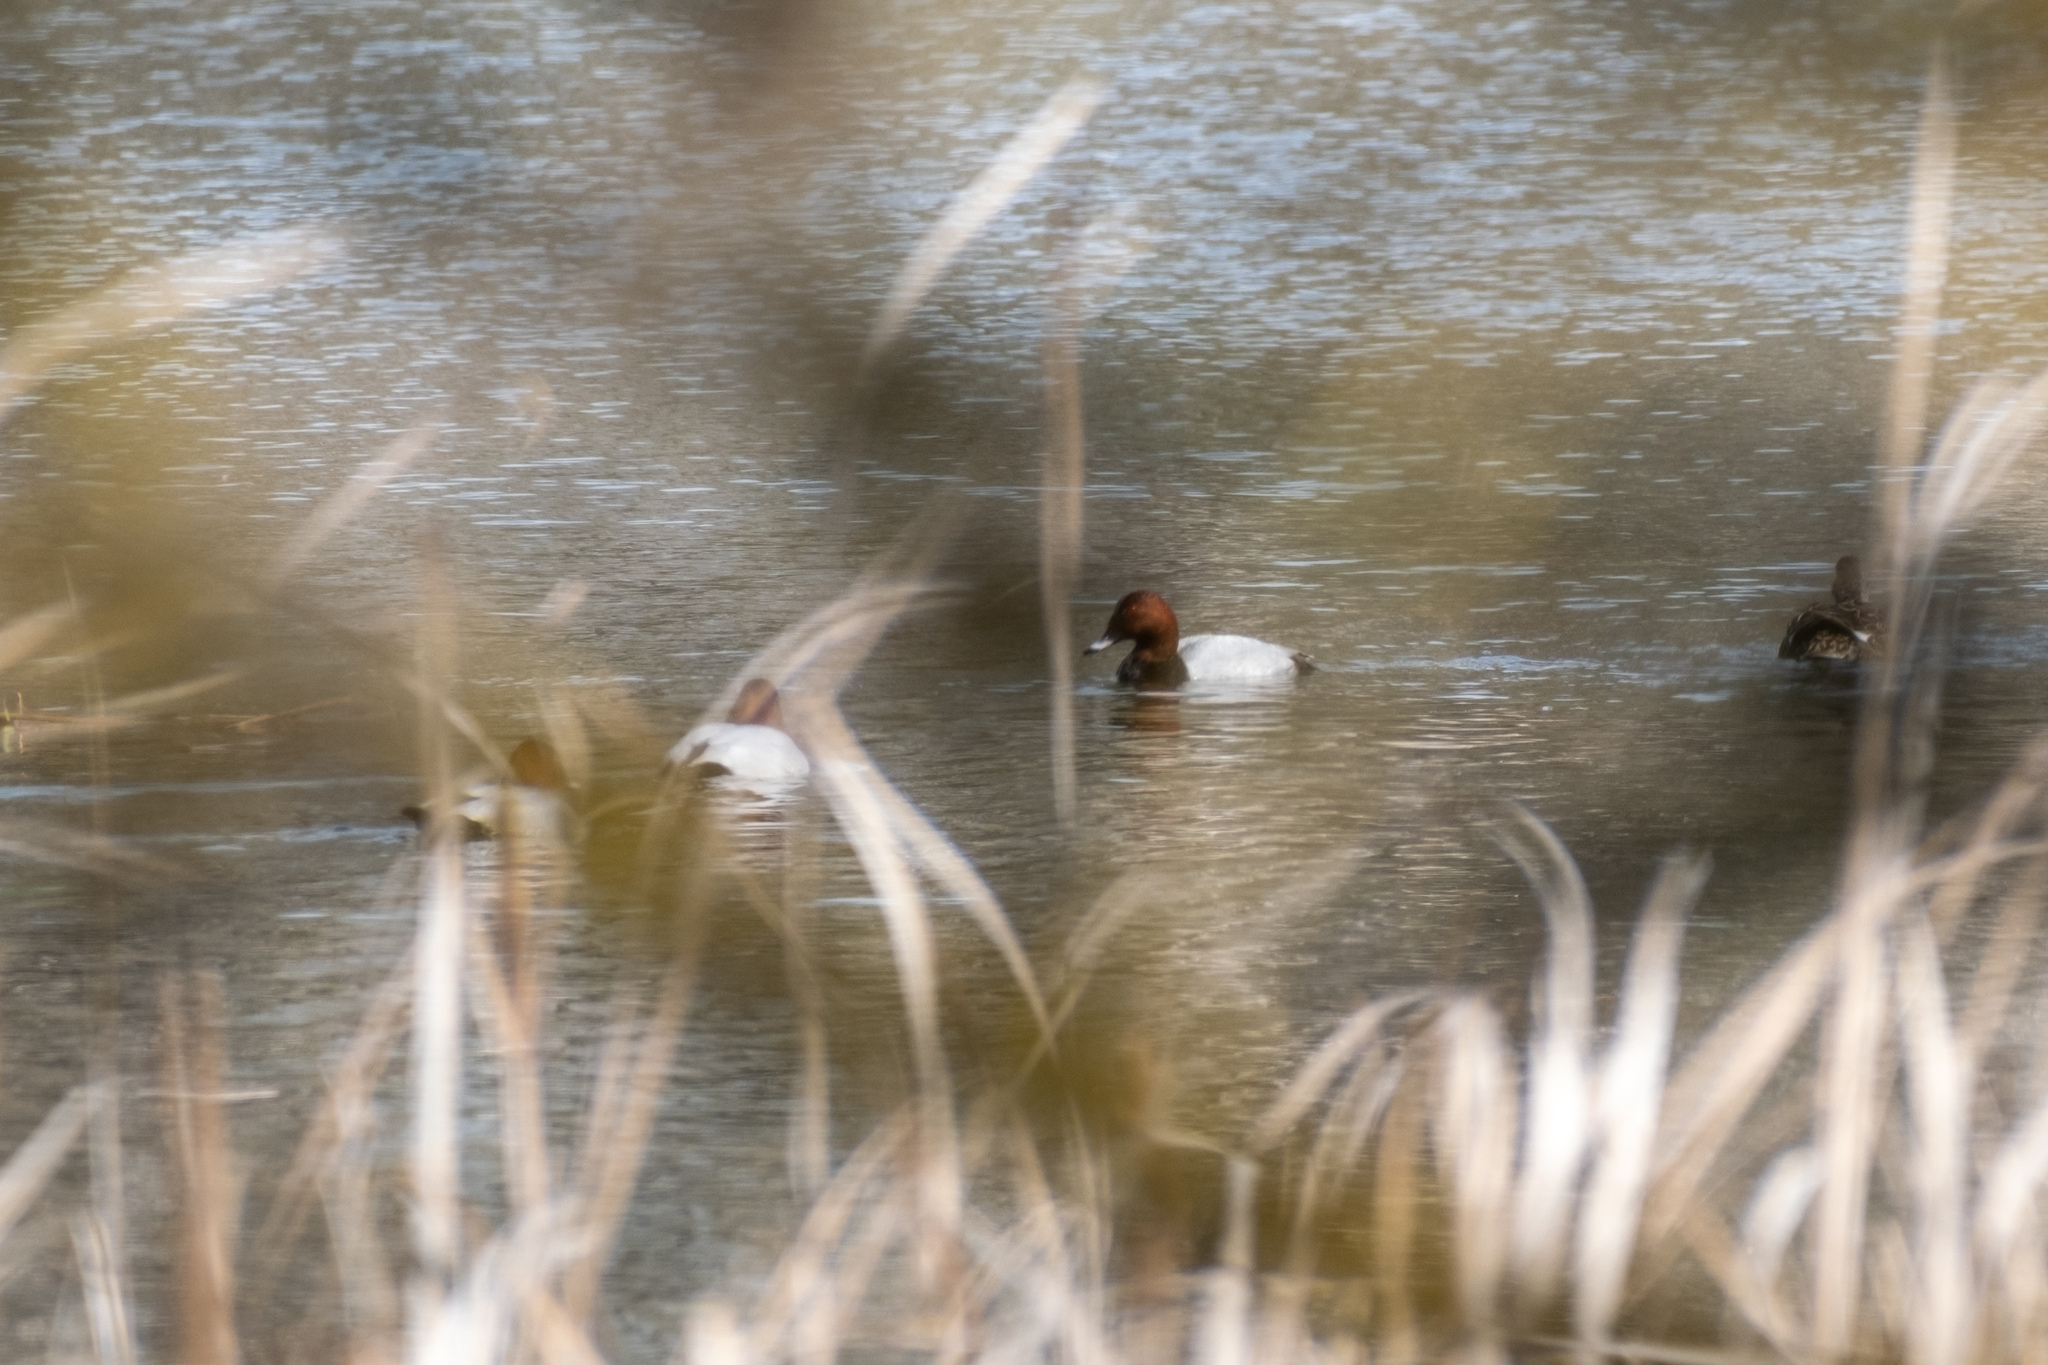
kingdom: Animalia
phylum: Chordata
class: Aves
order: Anseriformes
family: Anatidae
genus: Aythya
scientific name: Aythya ferina
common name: Common pochard
